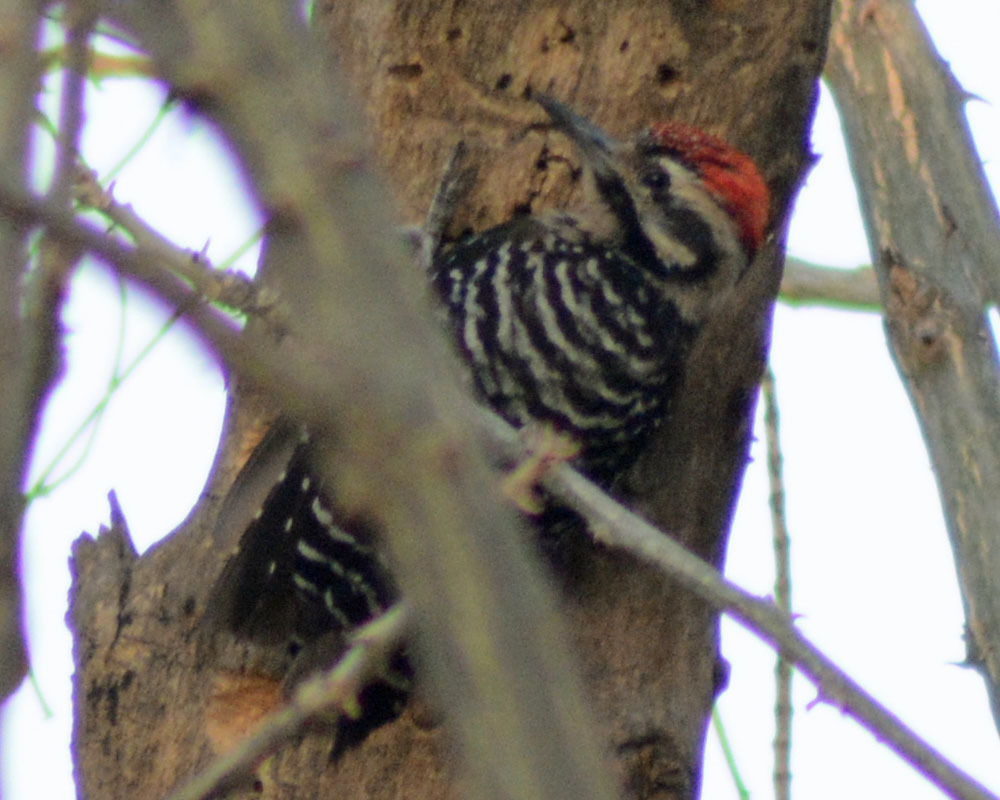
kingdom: Animalia
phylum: Chordata
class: Aves
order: Piciformes
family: Picidae
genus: Dryobates
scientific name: Dryobates scalaris
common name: Ladder-backed woodpecker
